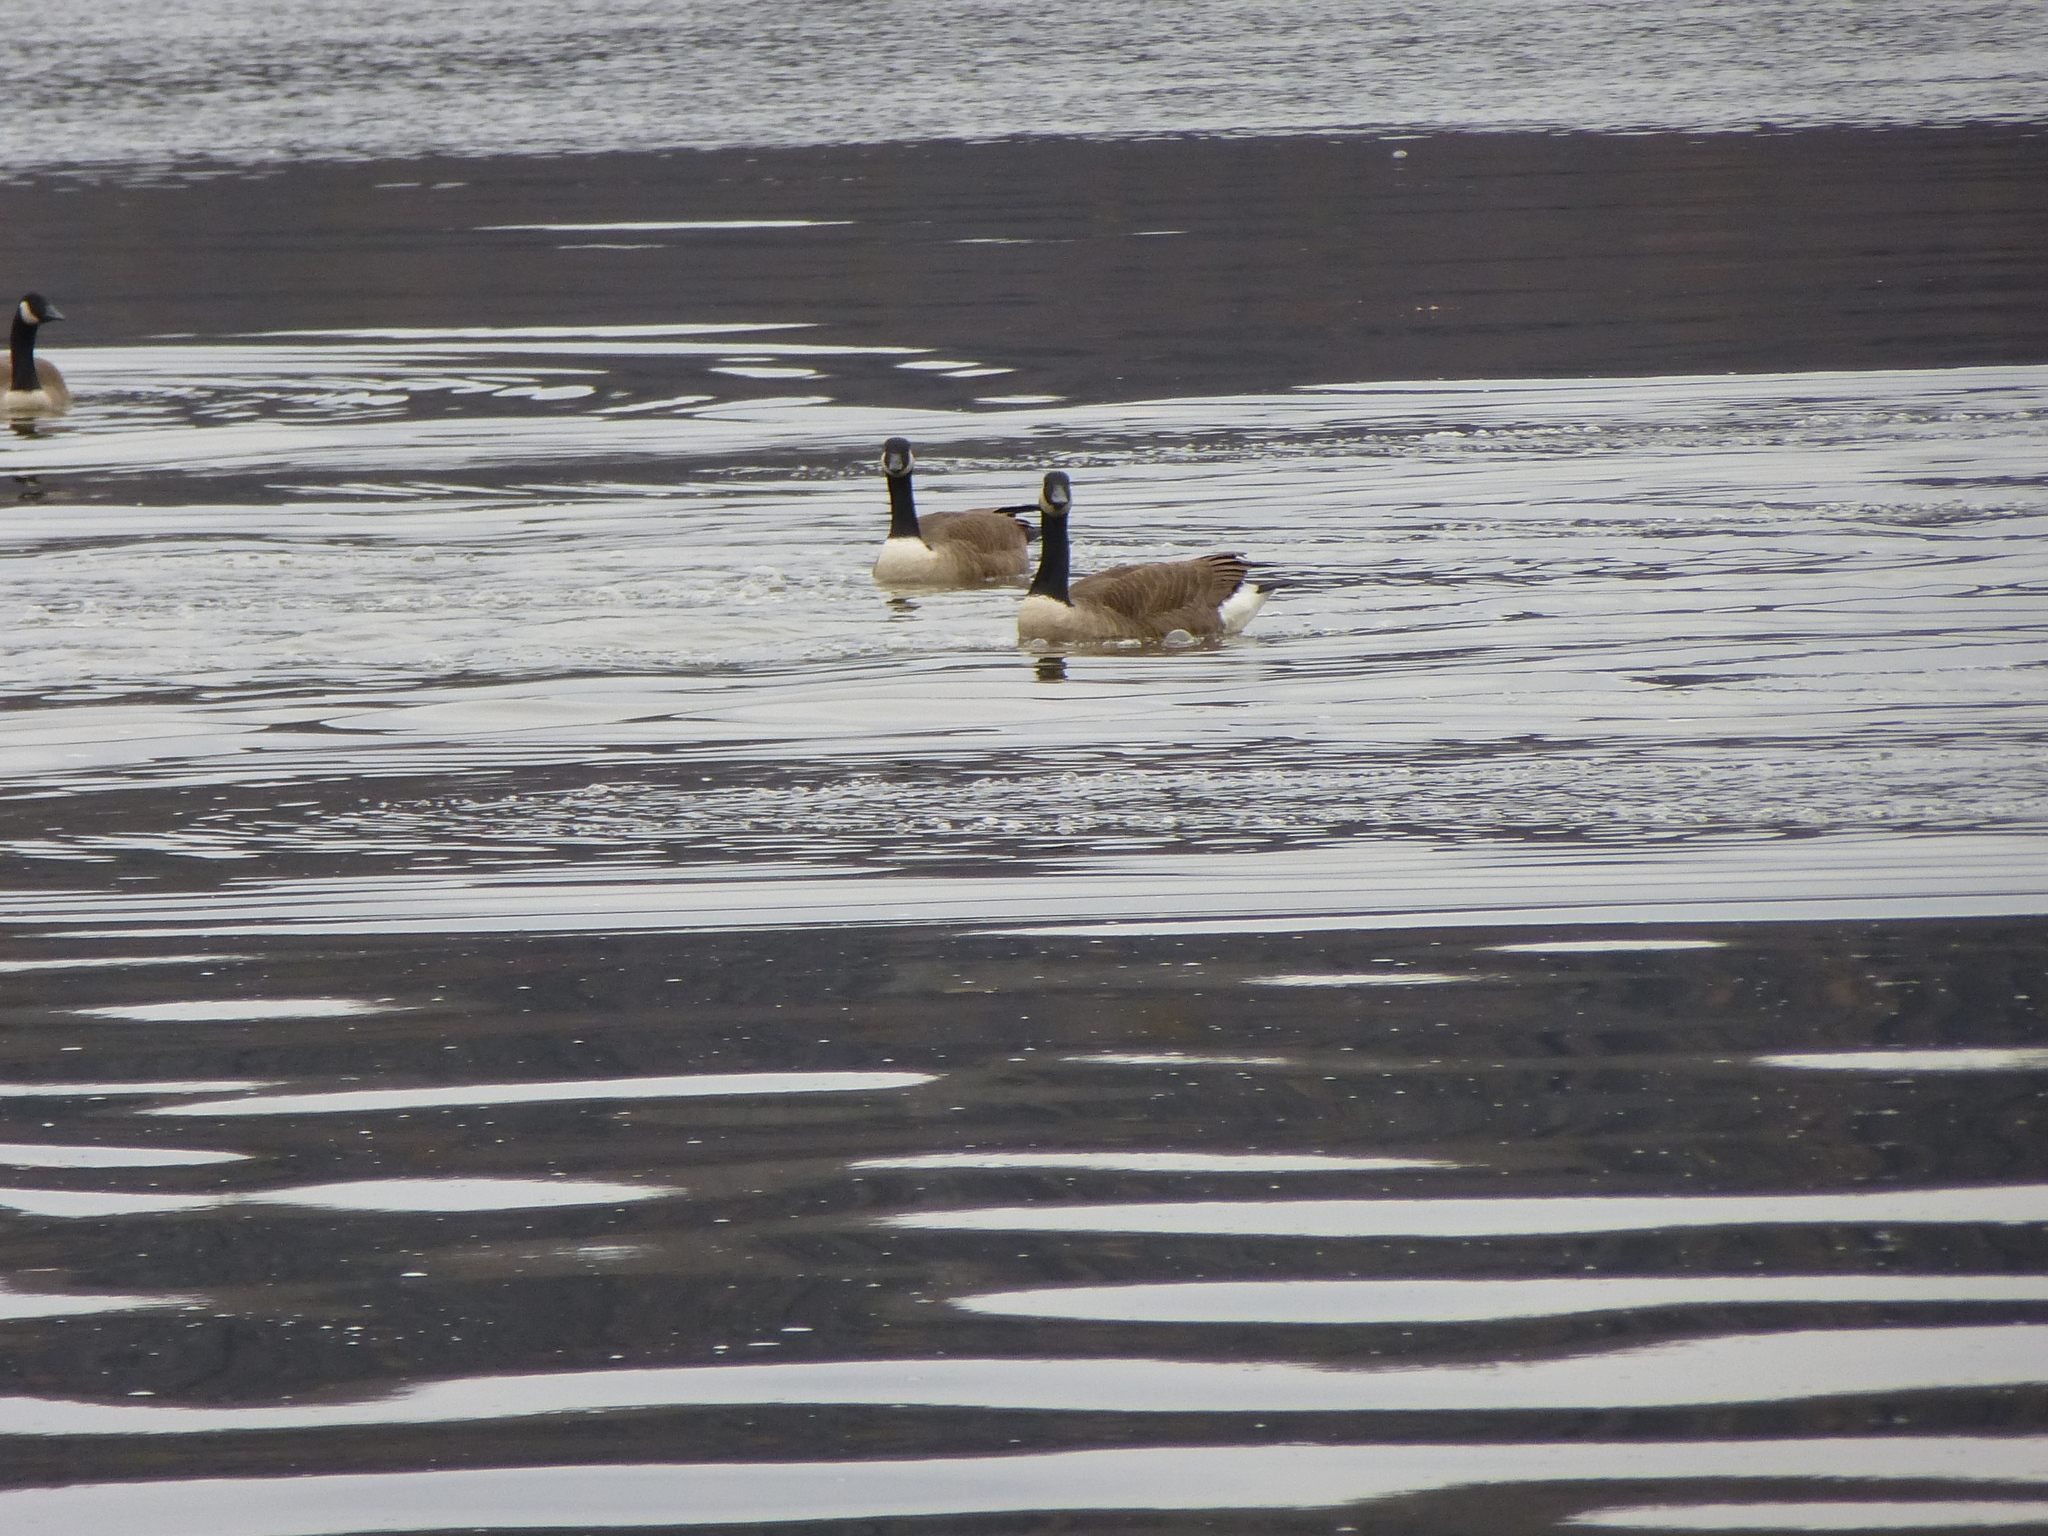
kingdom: Animalia
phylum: Chordata
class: Aves
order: Anseriformes
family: Anatidae
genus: Branta
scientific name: Branta canadensis
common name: Canada goose
